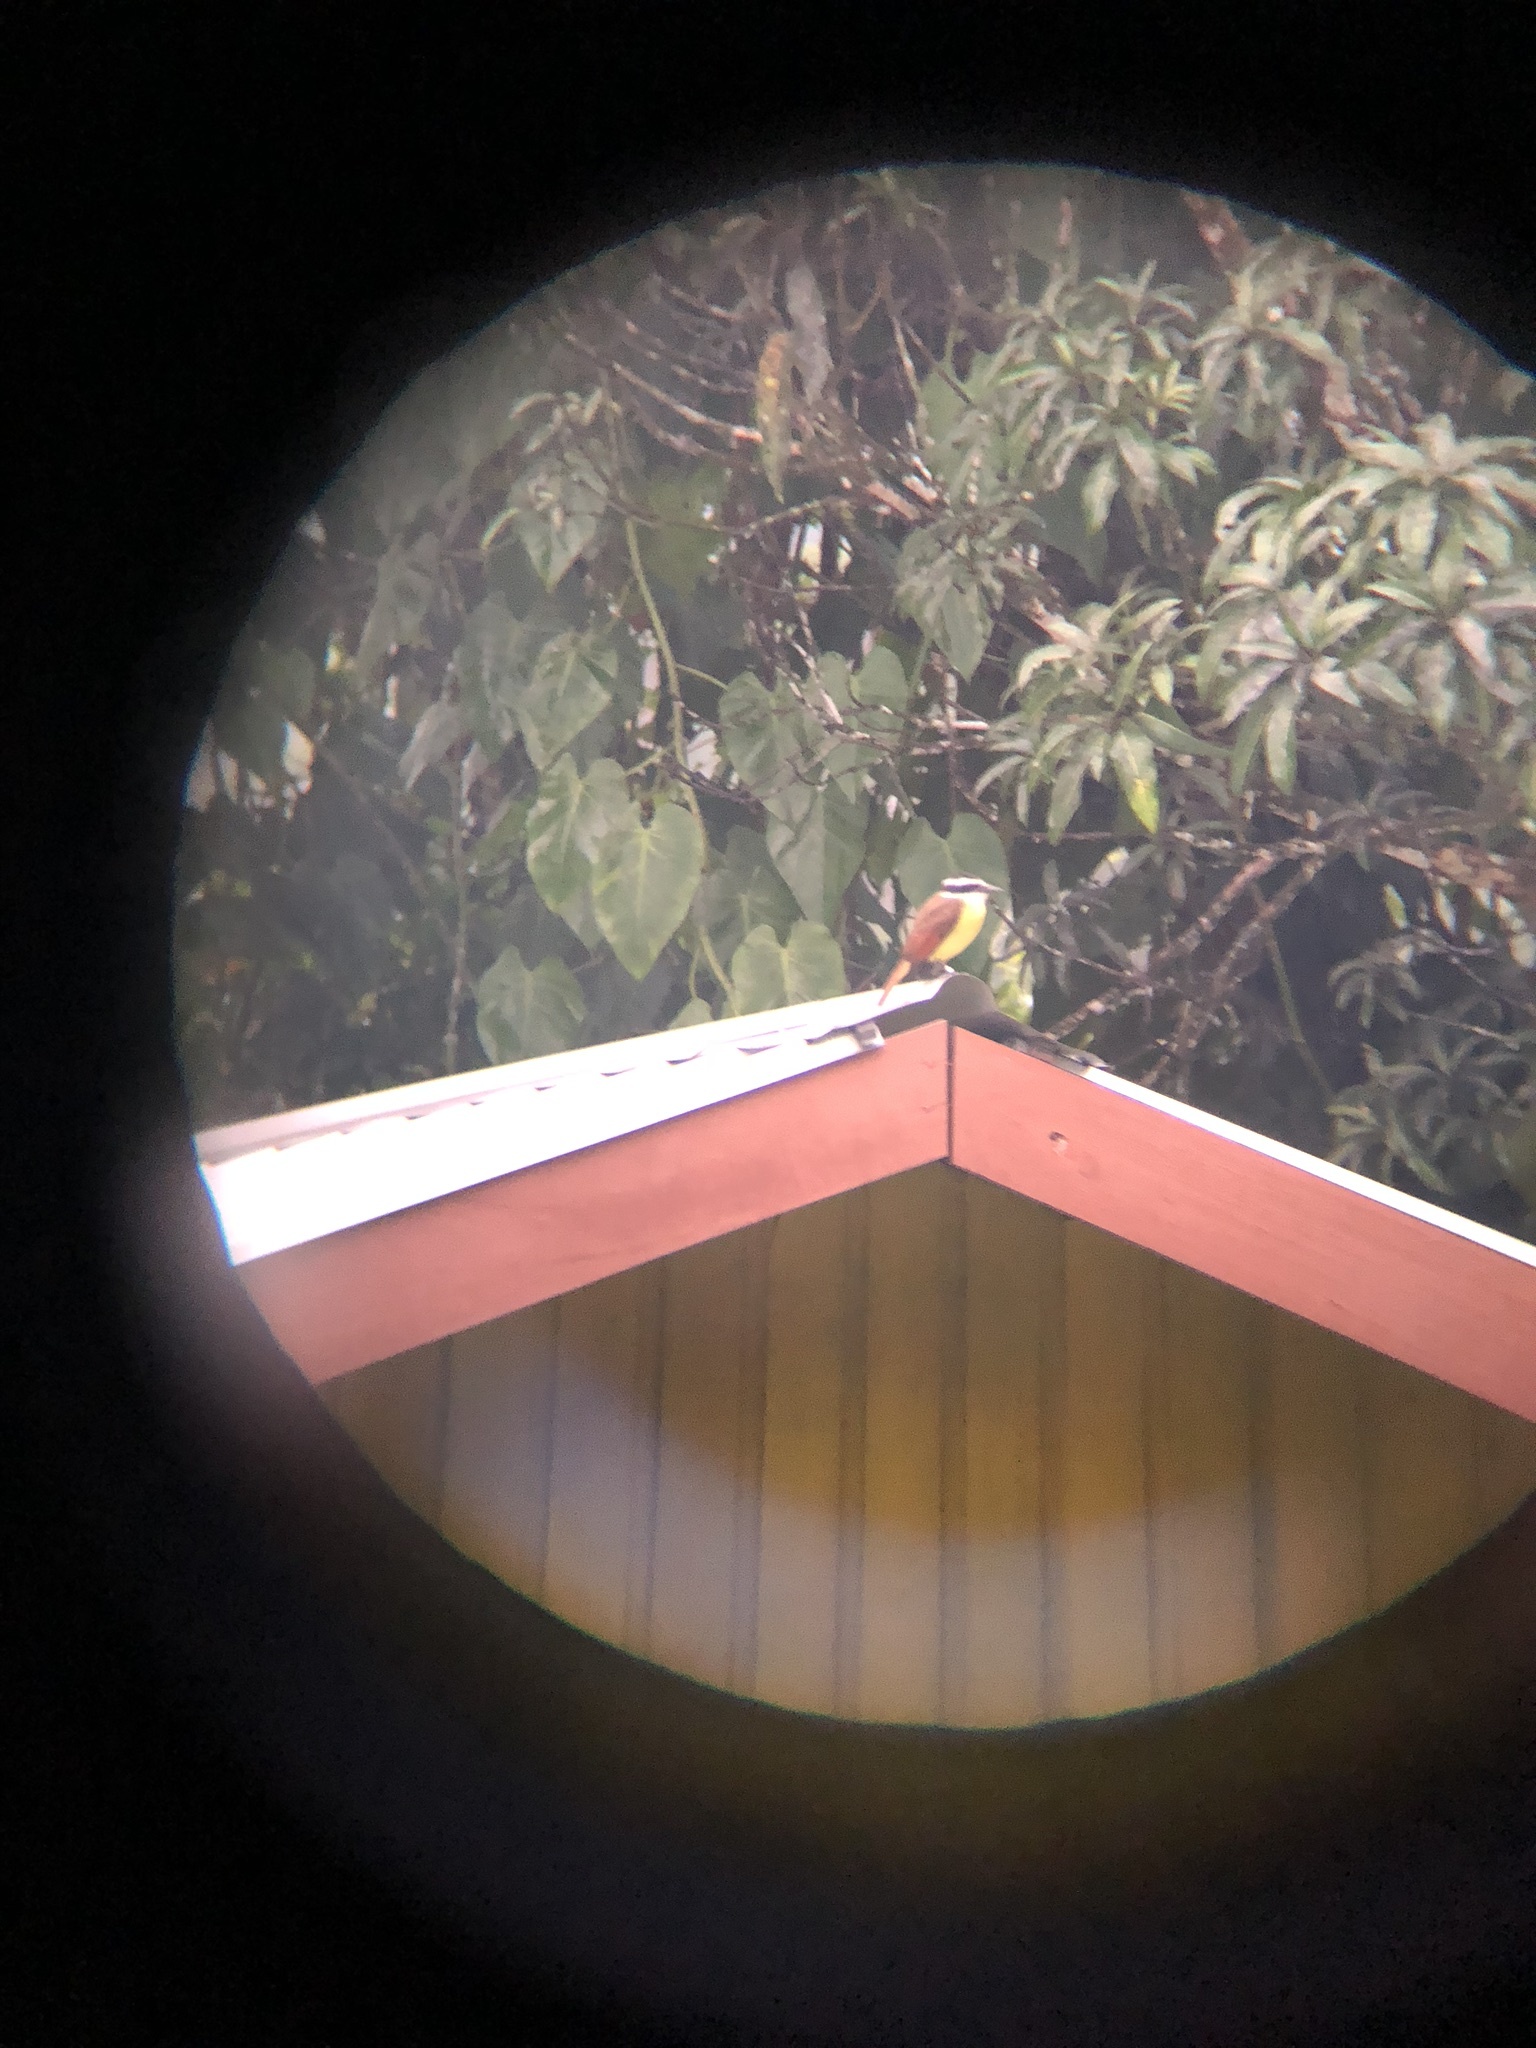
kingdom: Animalia
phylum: Chordata
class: Aves
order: Passeriformes
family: Tyrannidae
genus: Pitangus
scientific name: Pitangus sulphuratus
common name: Great kiskadee
